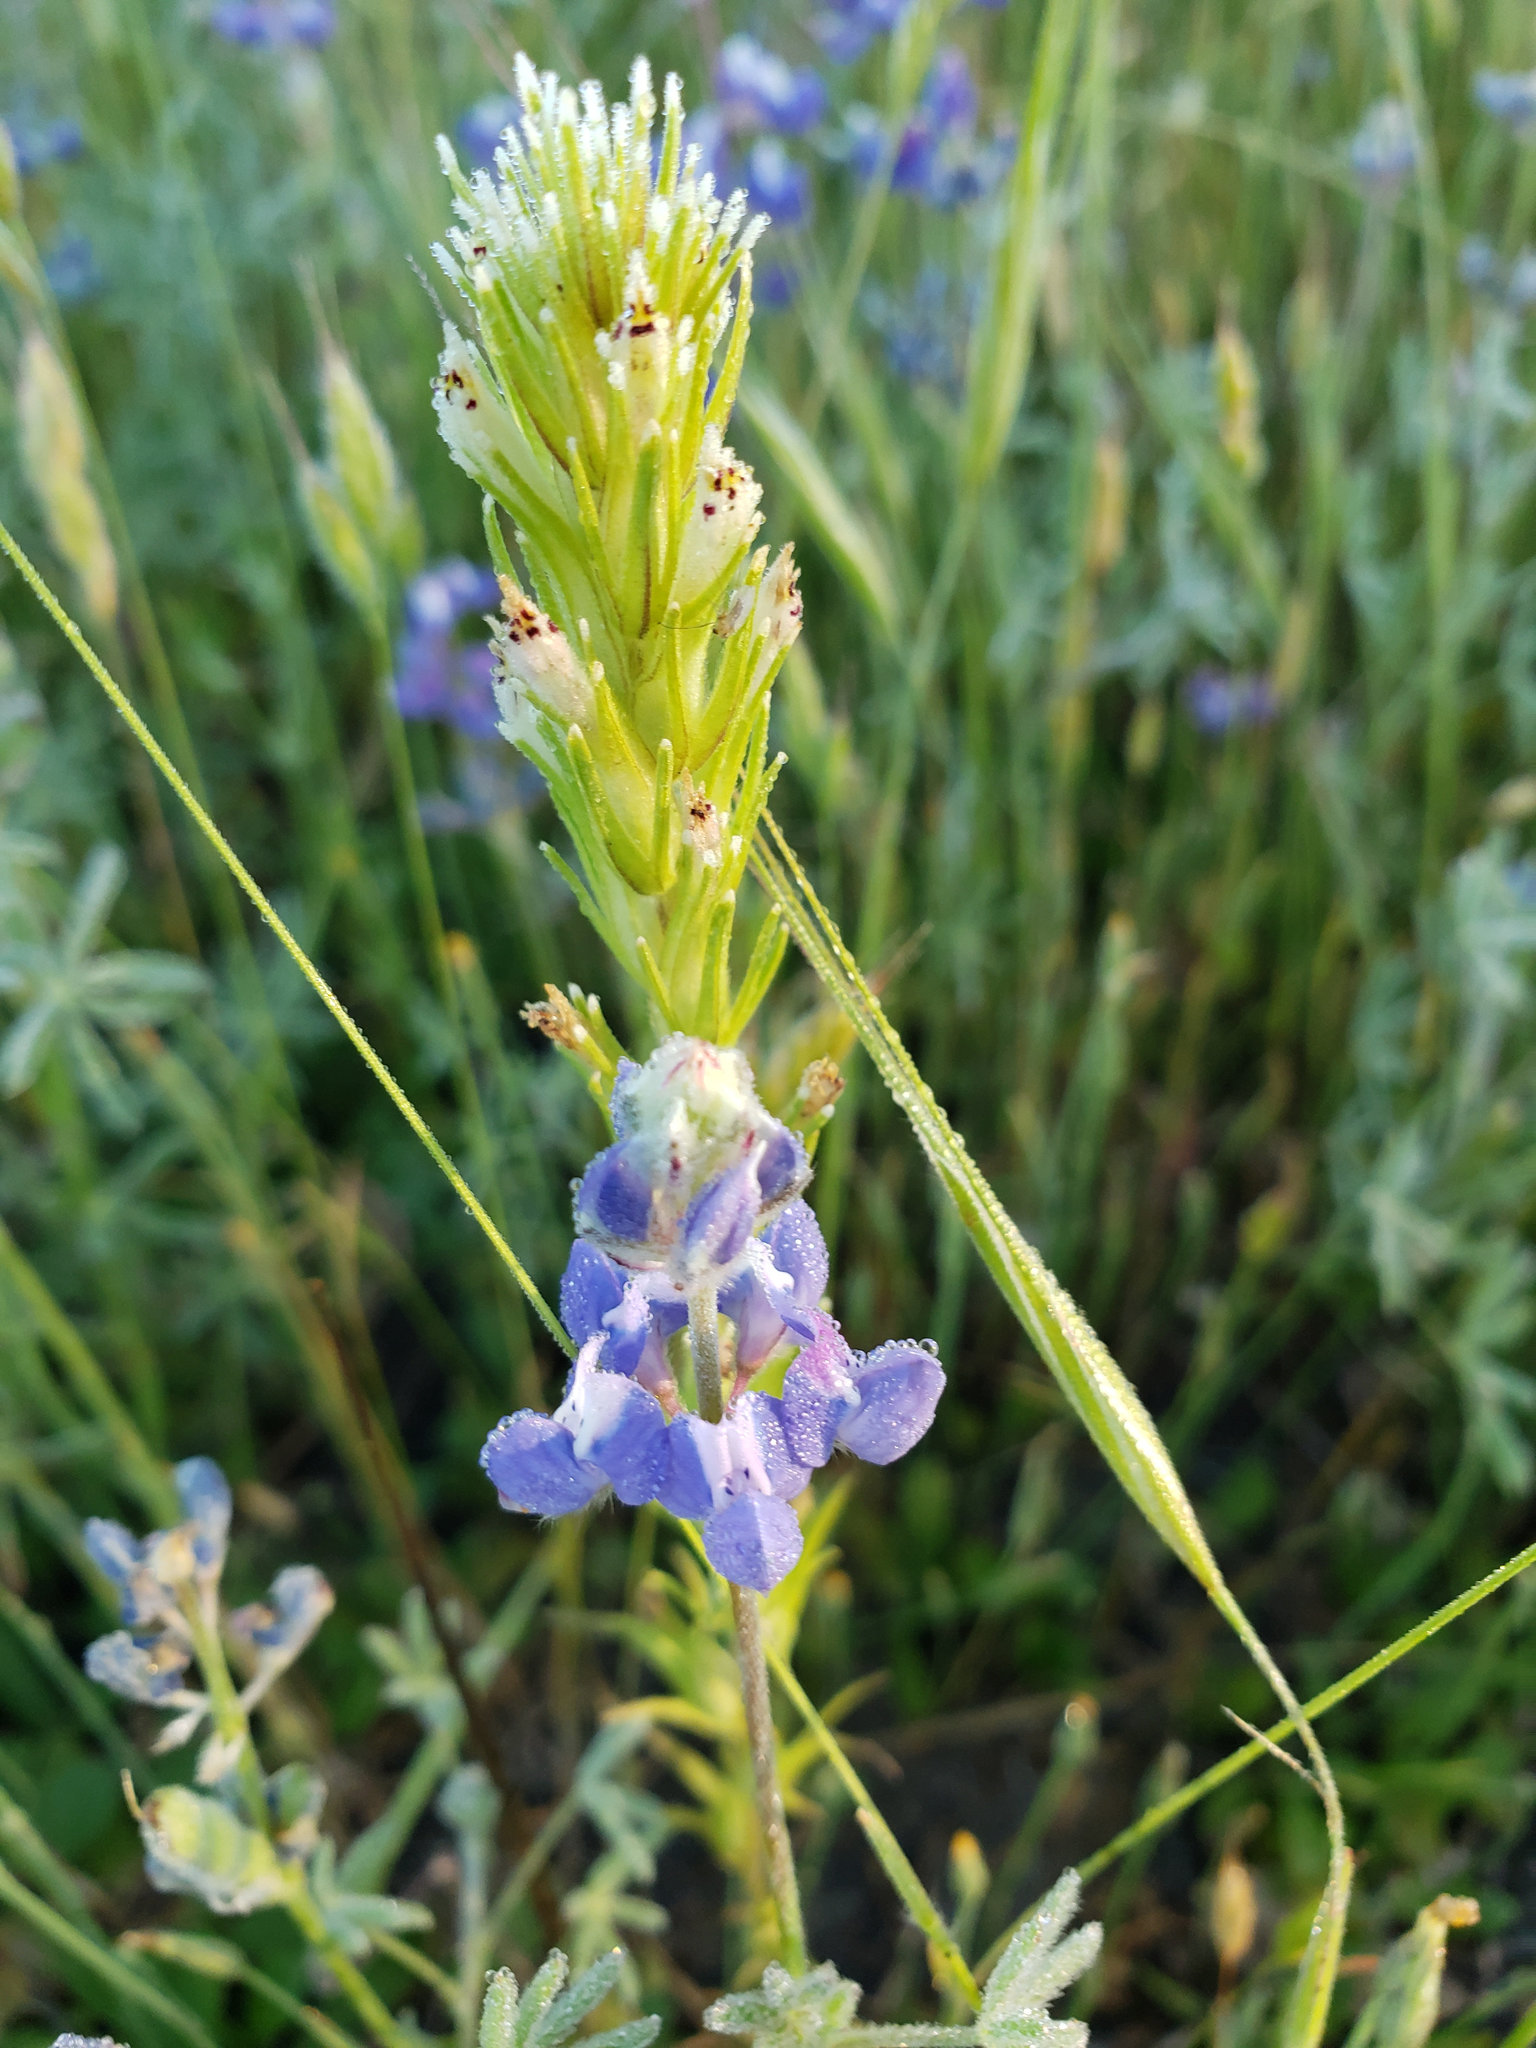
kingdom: Plantae
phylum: Tracheophyta
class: Magnoliopsida
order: Lamiales
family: Orobanchaceae
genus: Castilleja
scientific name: Castilleja attenuata
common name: Valley tassels
